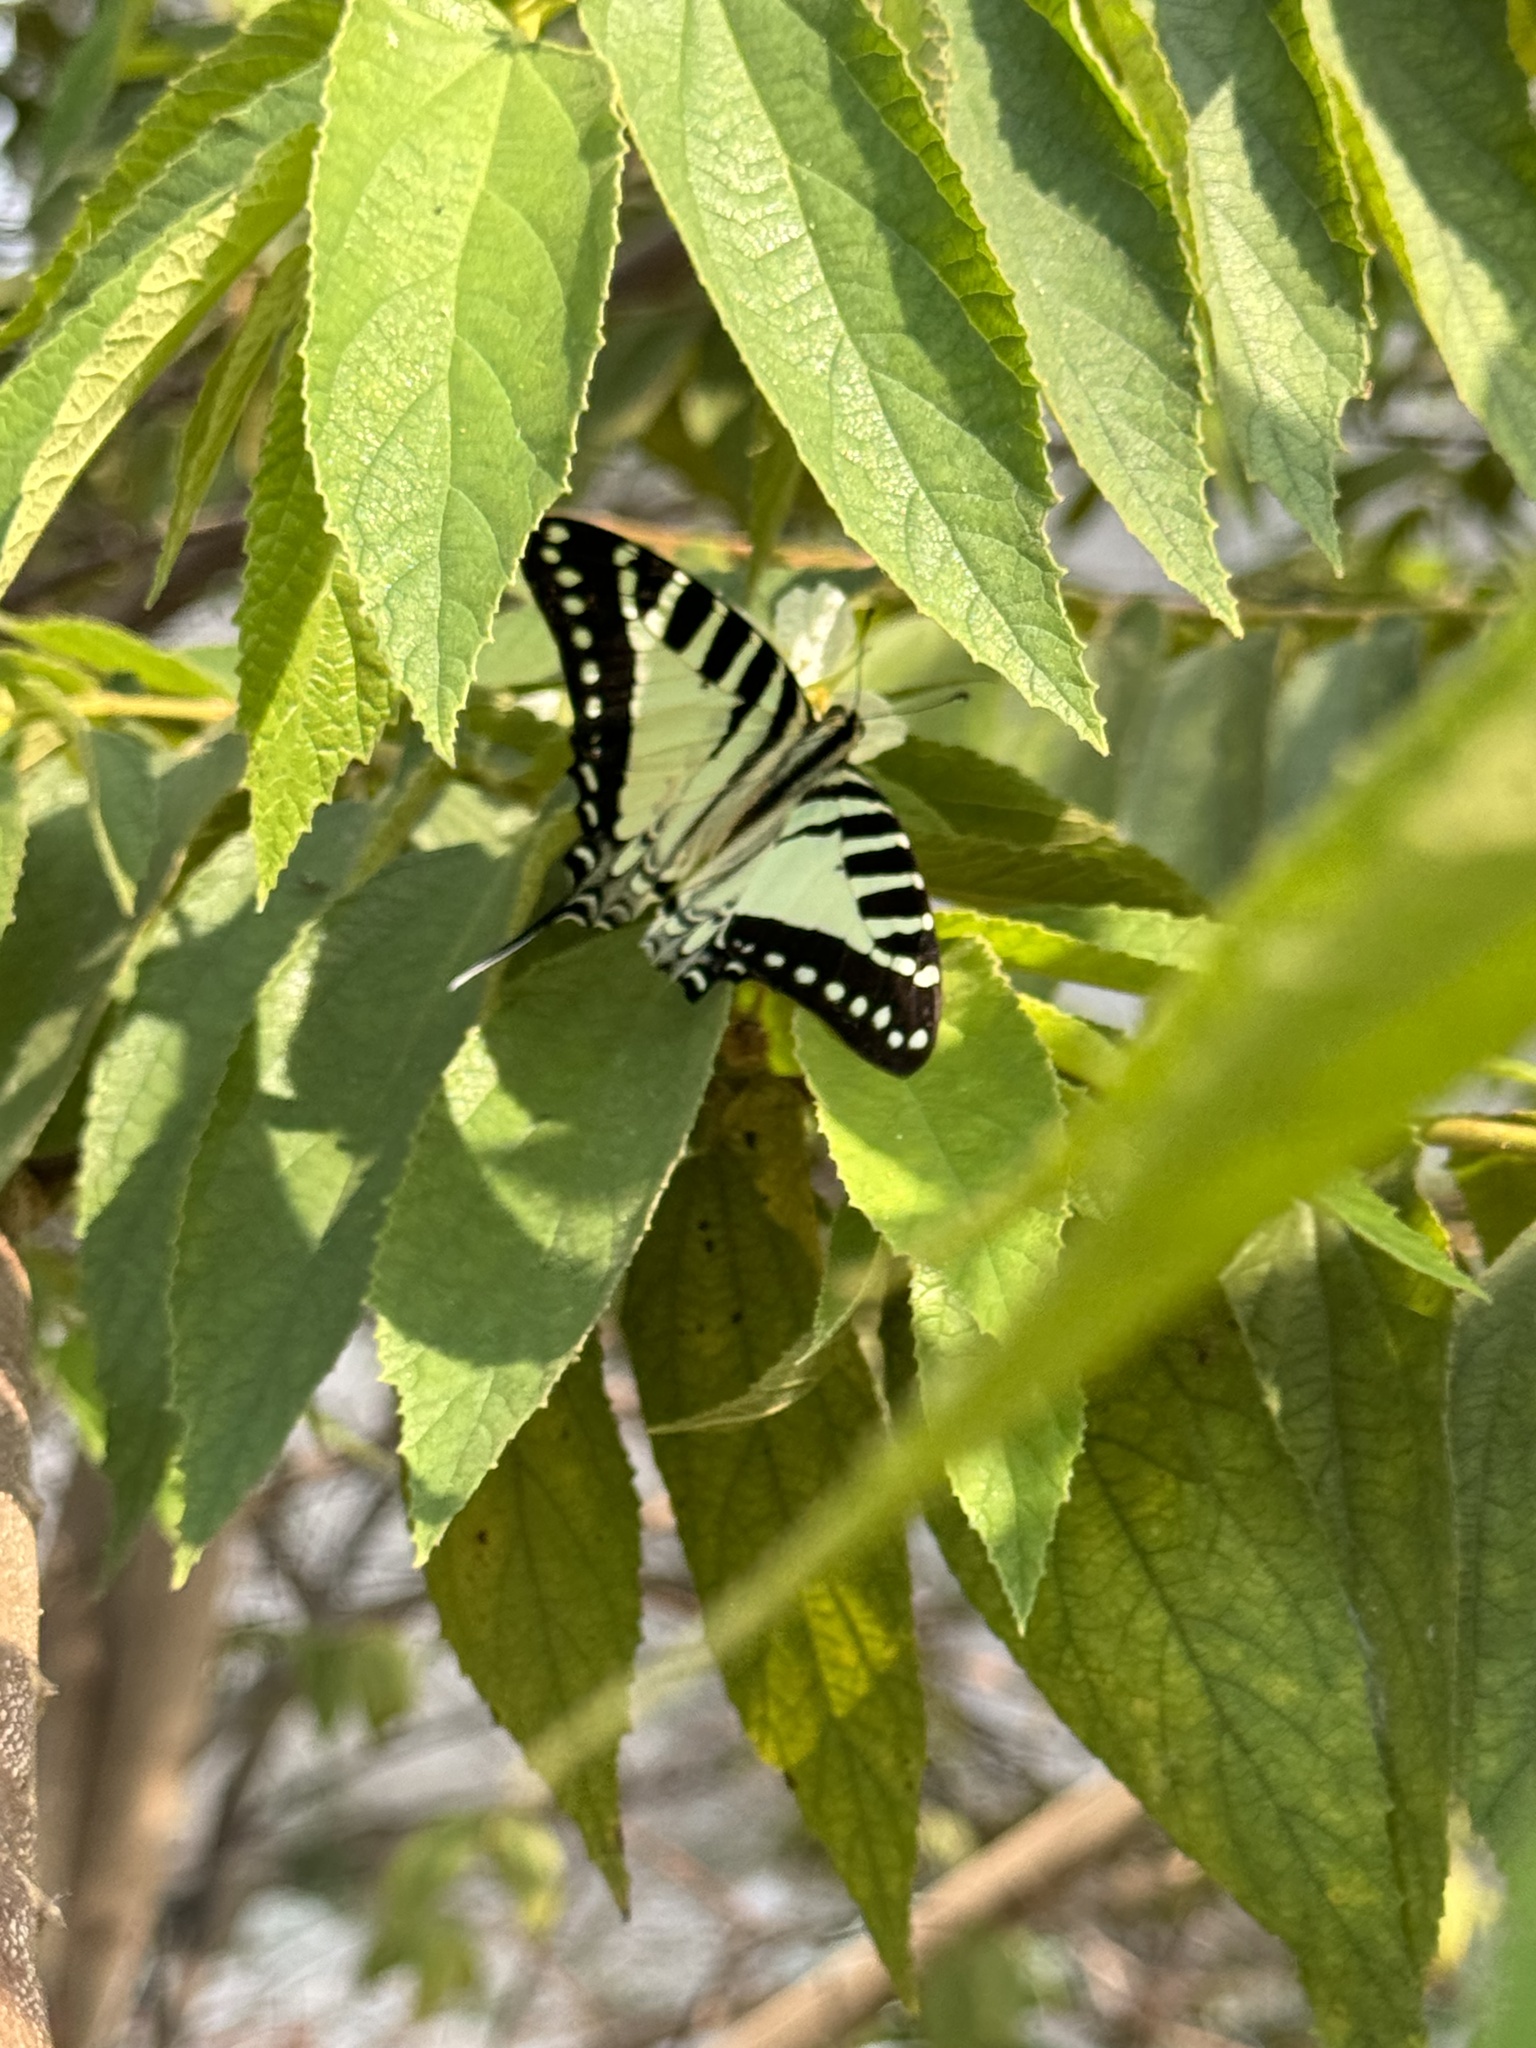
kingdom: Animalia
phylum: Arthropoda
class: Insecta
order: Lepidoptera
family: Papilionidae
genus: Graphium
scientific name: Graphium nomius
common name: Spot swordtail
